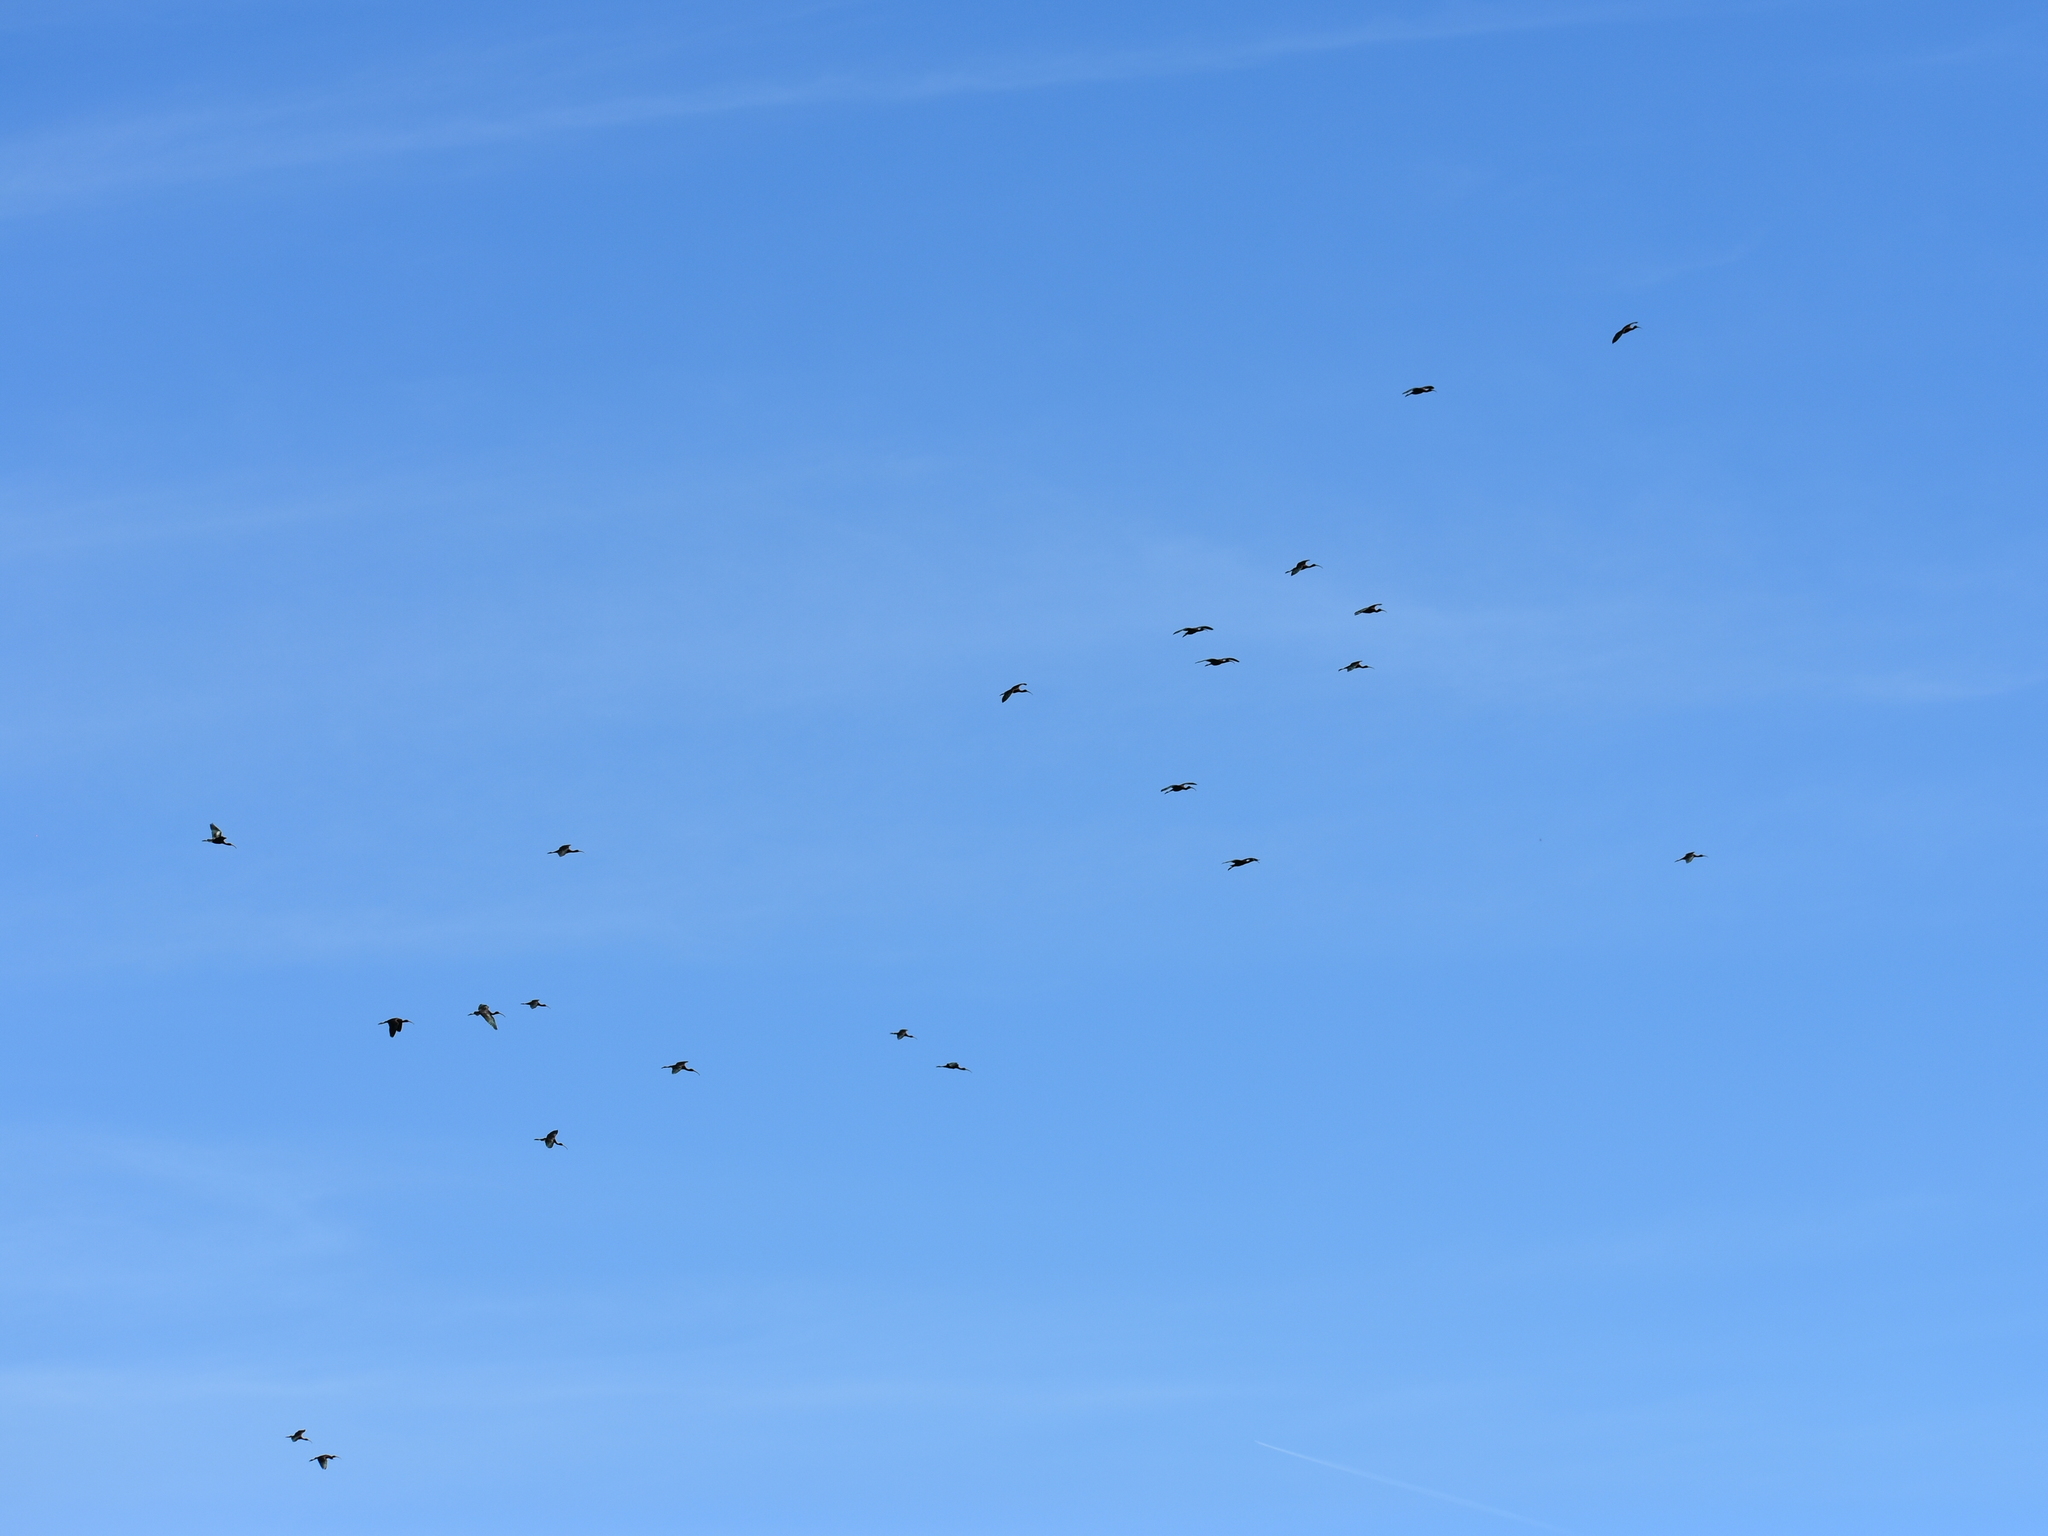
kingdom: Animalia
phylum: Chordata
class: Aves
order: Pelecaniformes
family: Threskiornithidae
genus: Plegadis
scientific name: Plegadis falcinellus
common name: Glossy ibis
